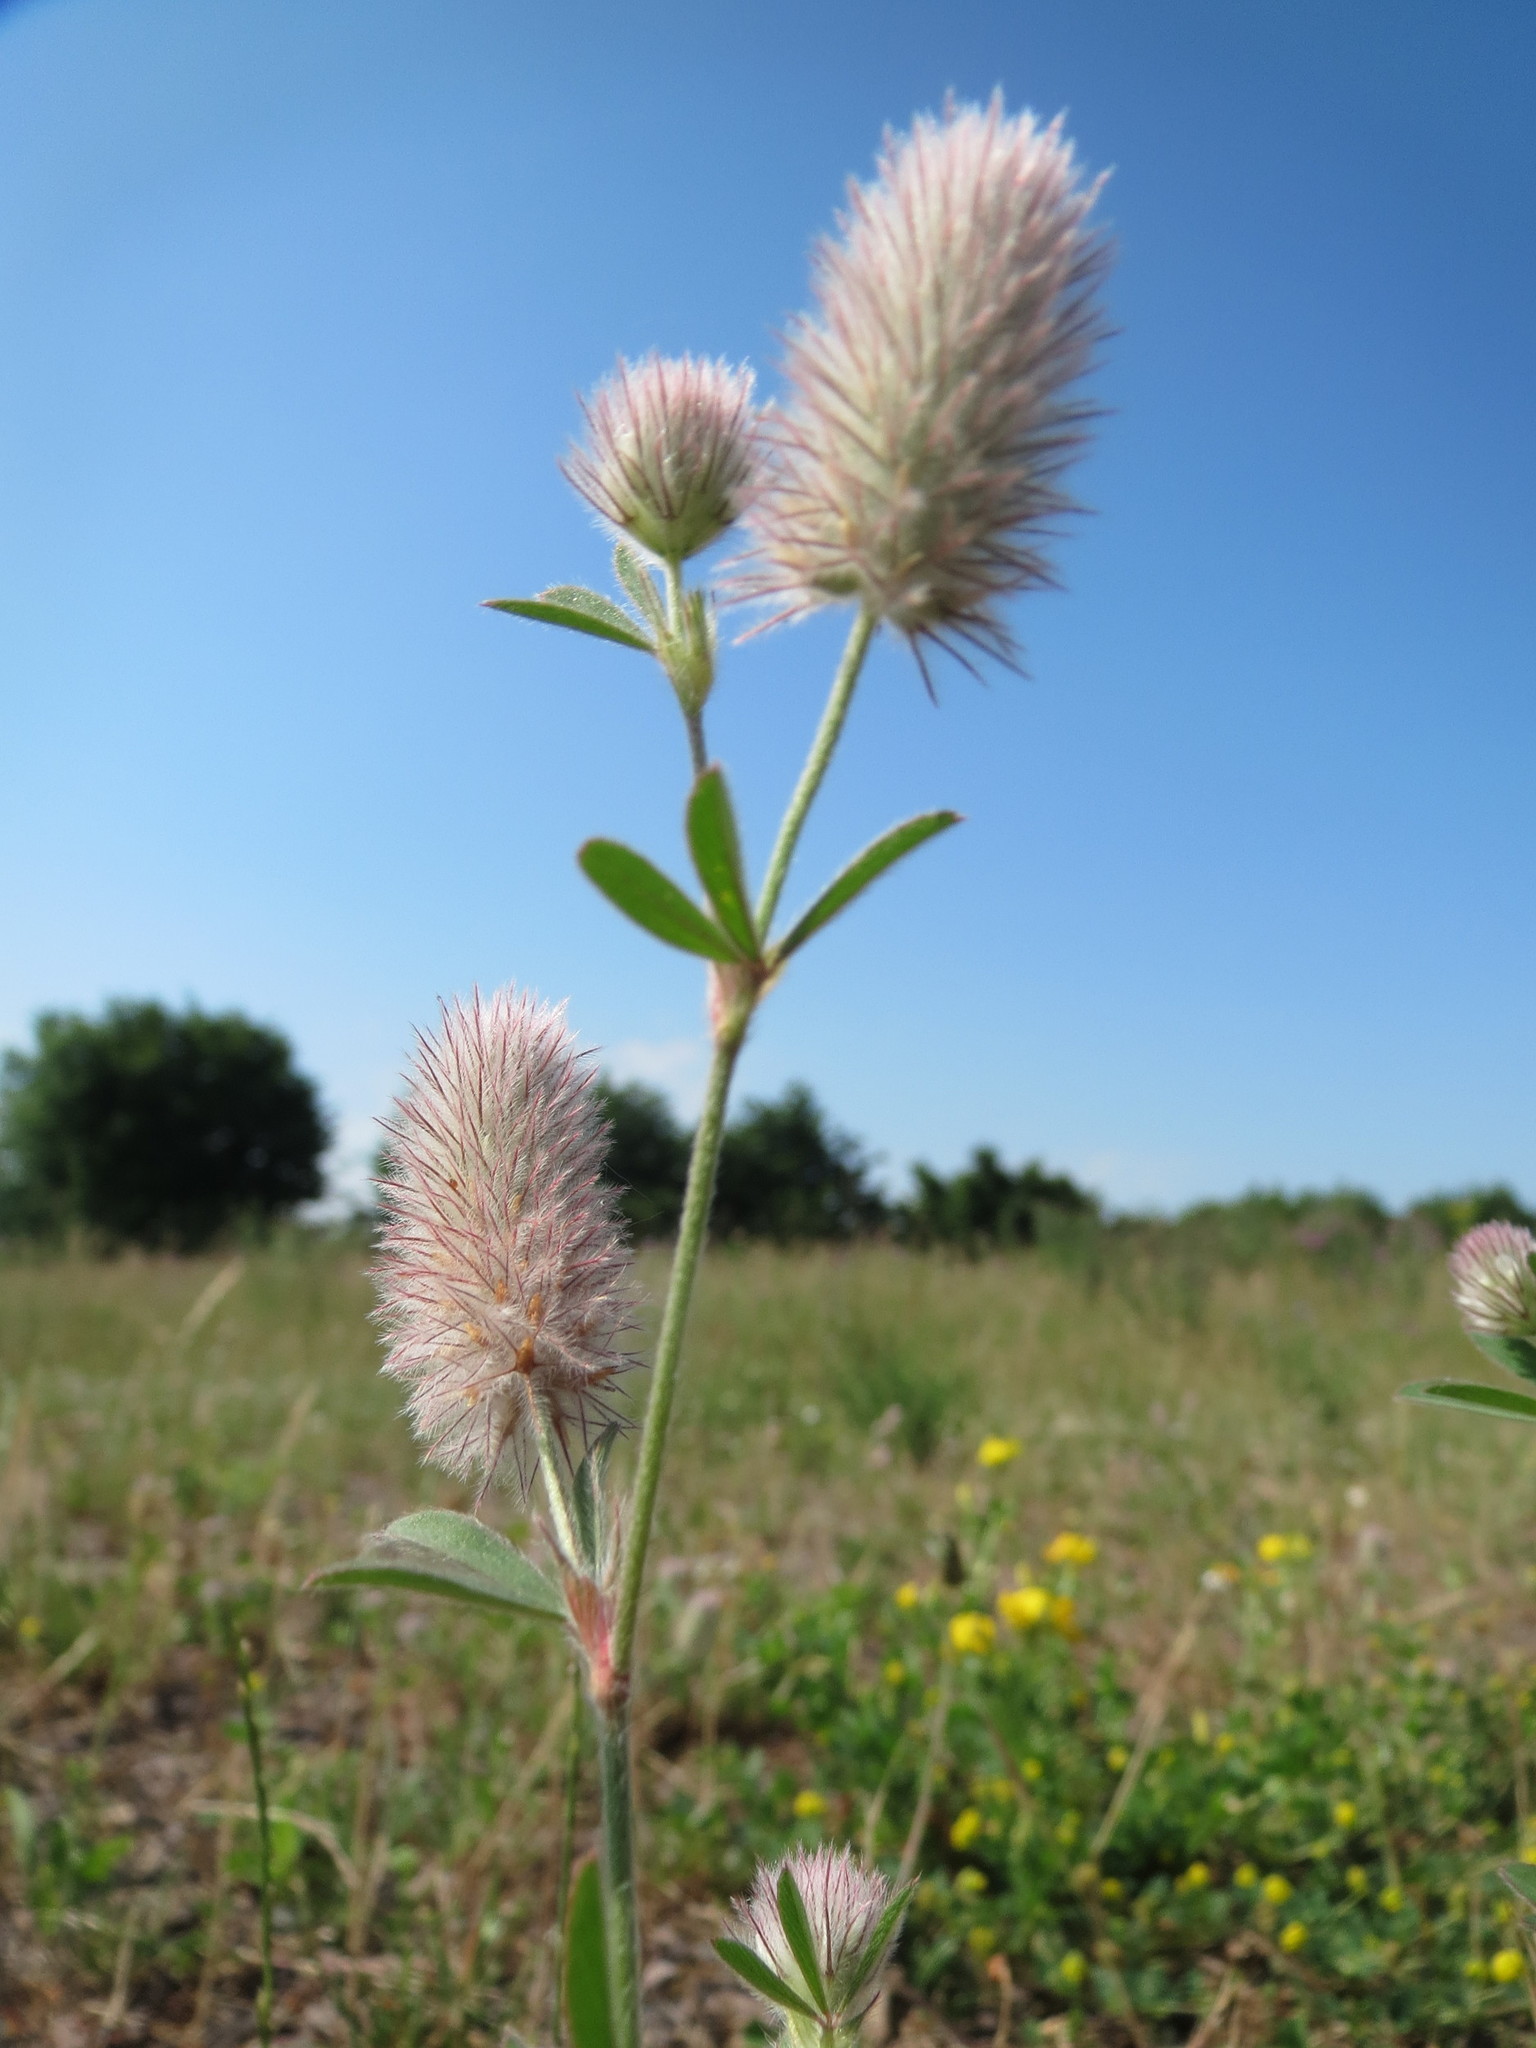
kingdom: Plantae
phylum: Tracheophyta
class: Magnoliopsida
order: Fabales
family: Fabaceae
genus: Trifolium
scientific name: Trifolium arvense
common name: Hare's-foot clover
